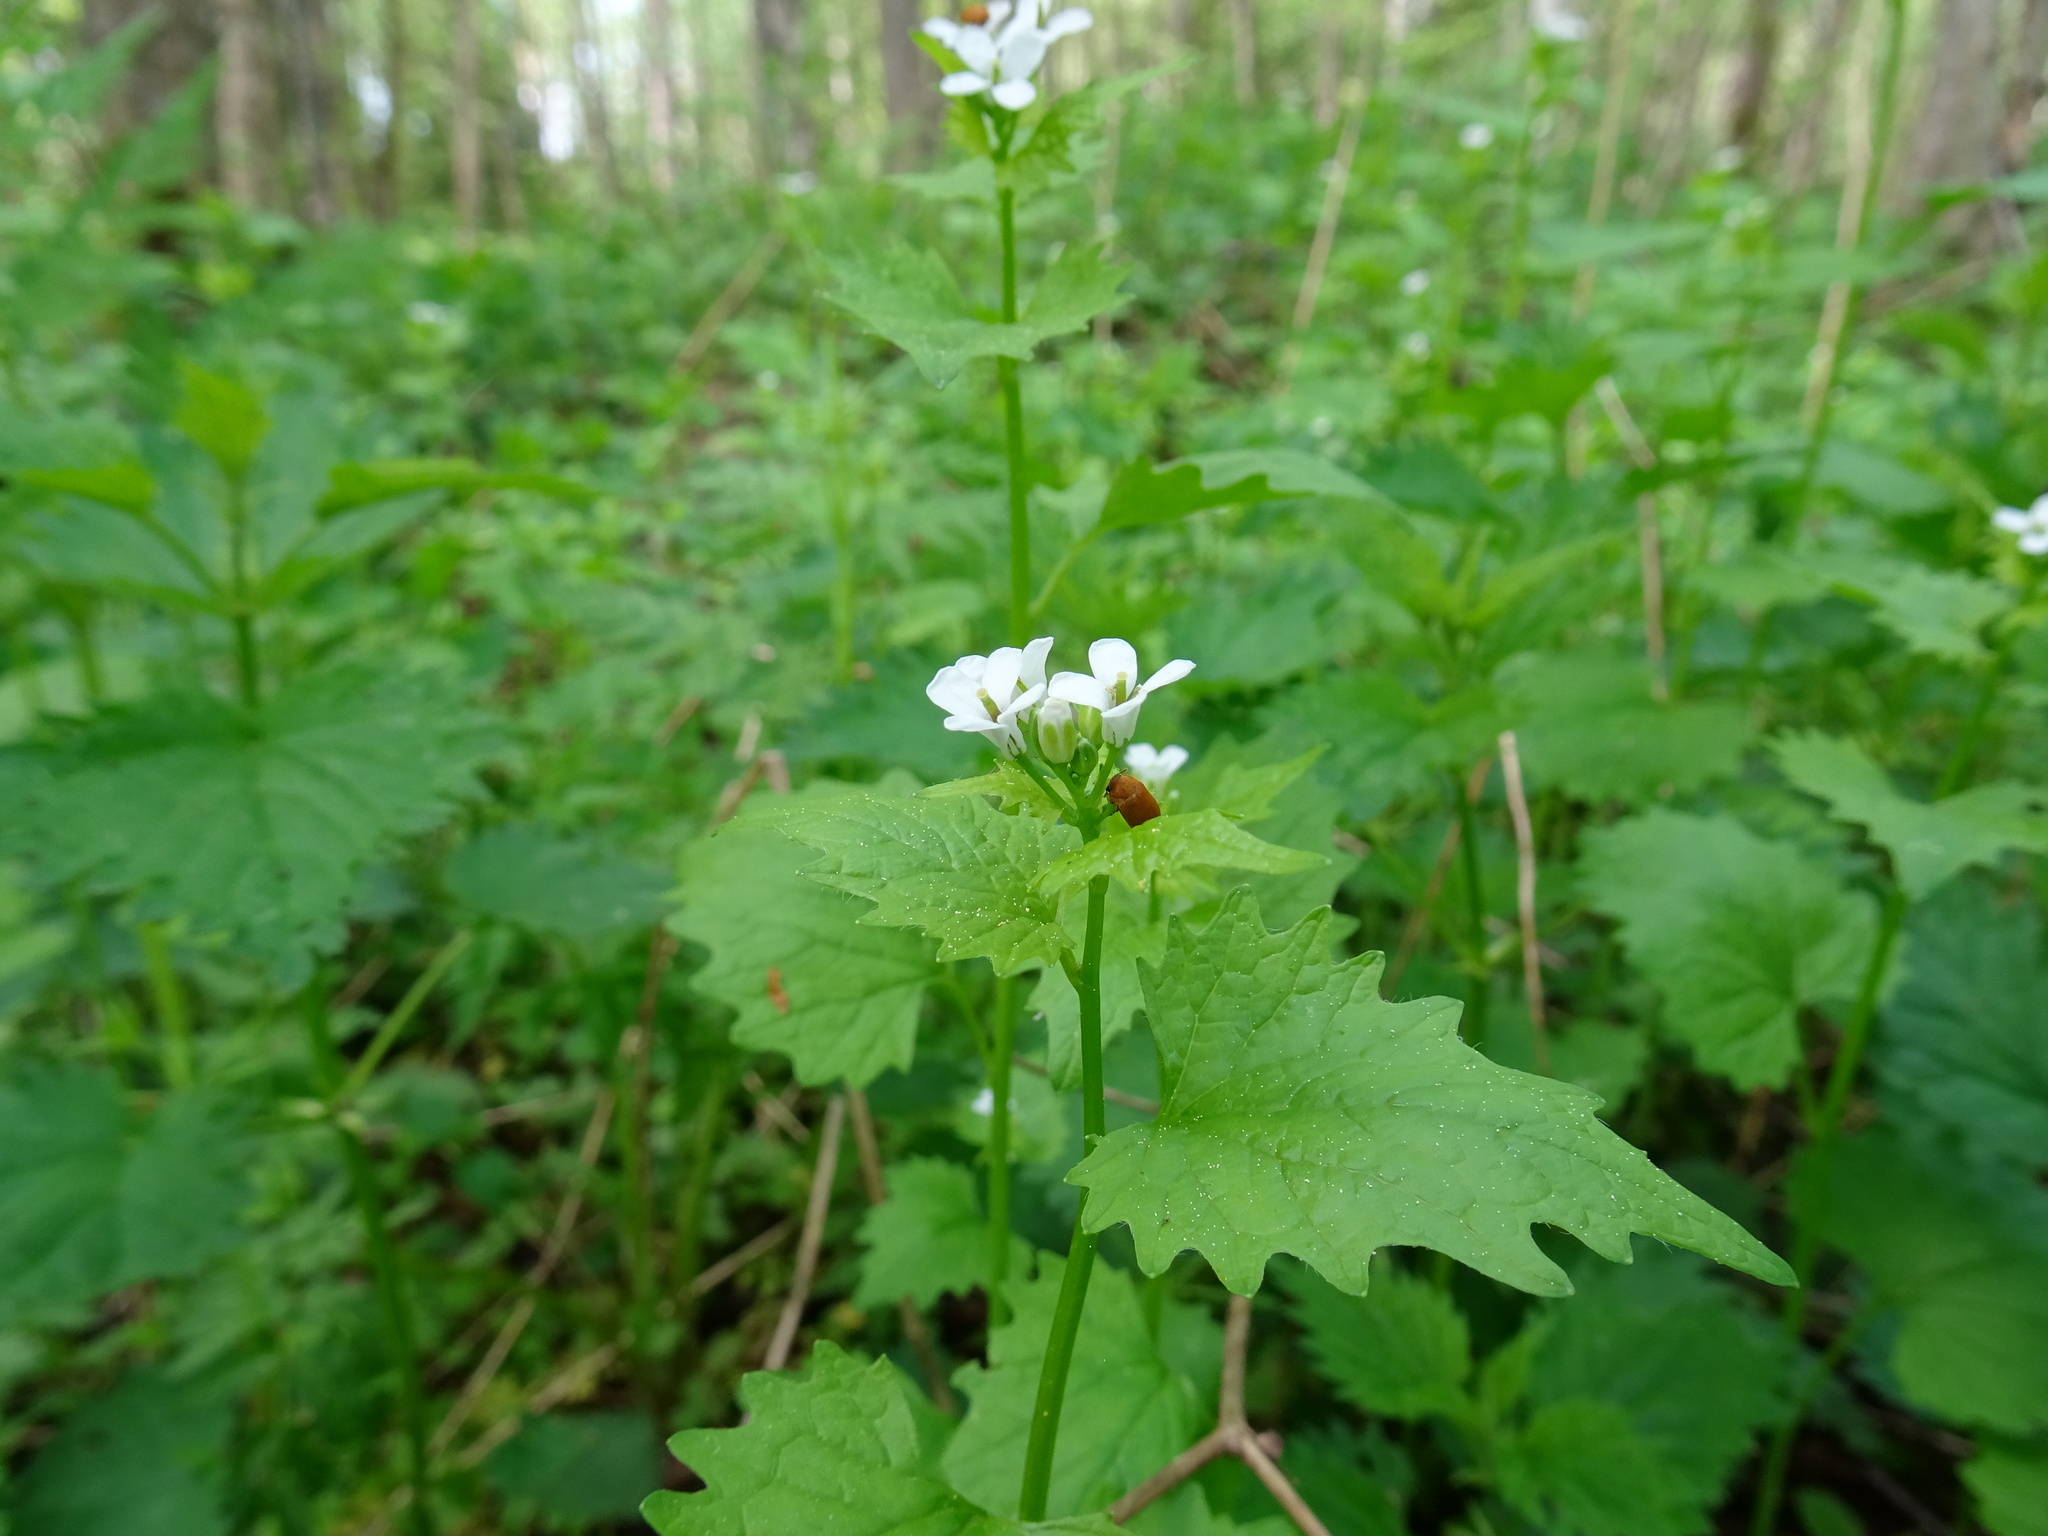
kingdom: Plantae
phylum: Tracheophyta
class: Magnoliopsida
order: Brassicales
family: Brassicaceae
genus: Alliaria
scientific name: Alliaria petiolata
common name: Garlic mustard
